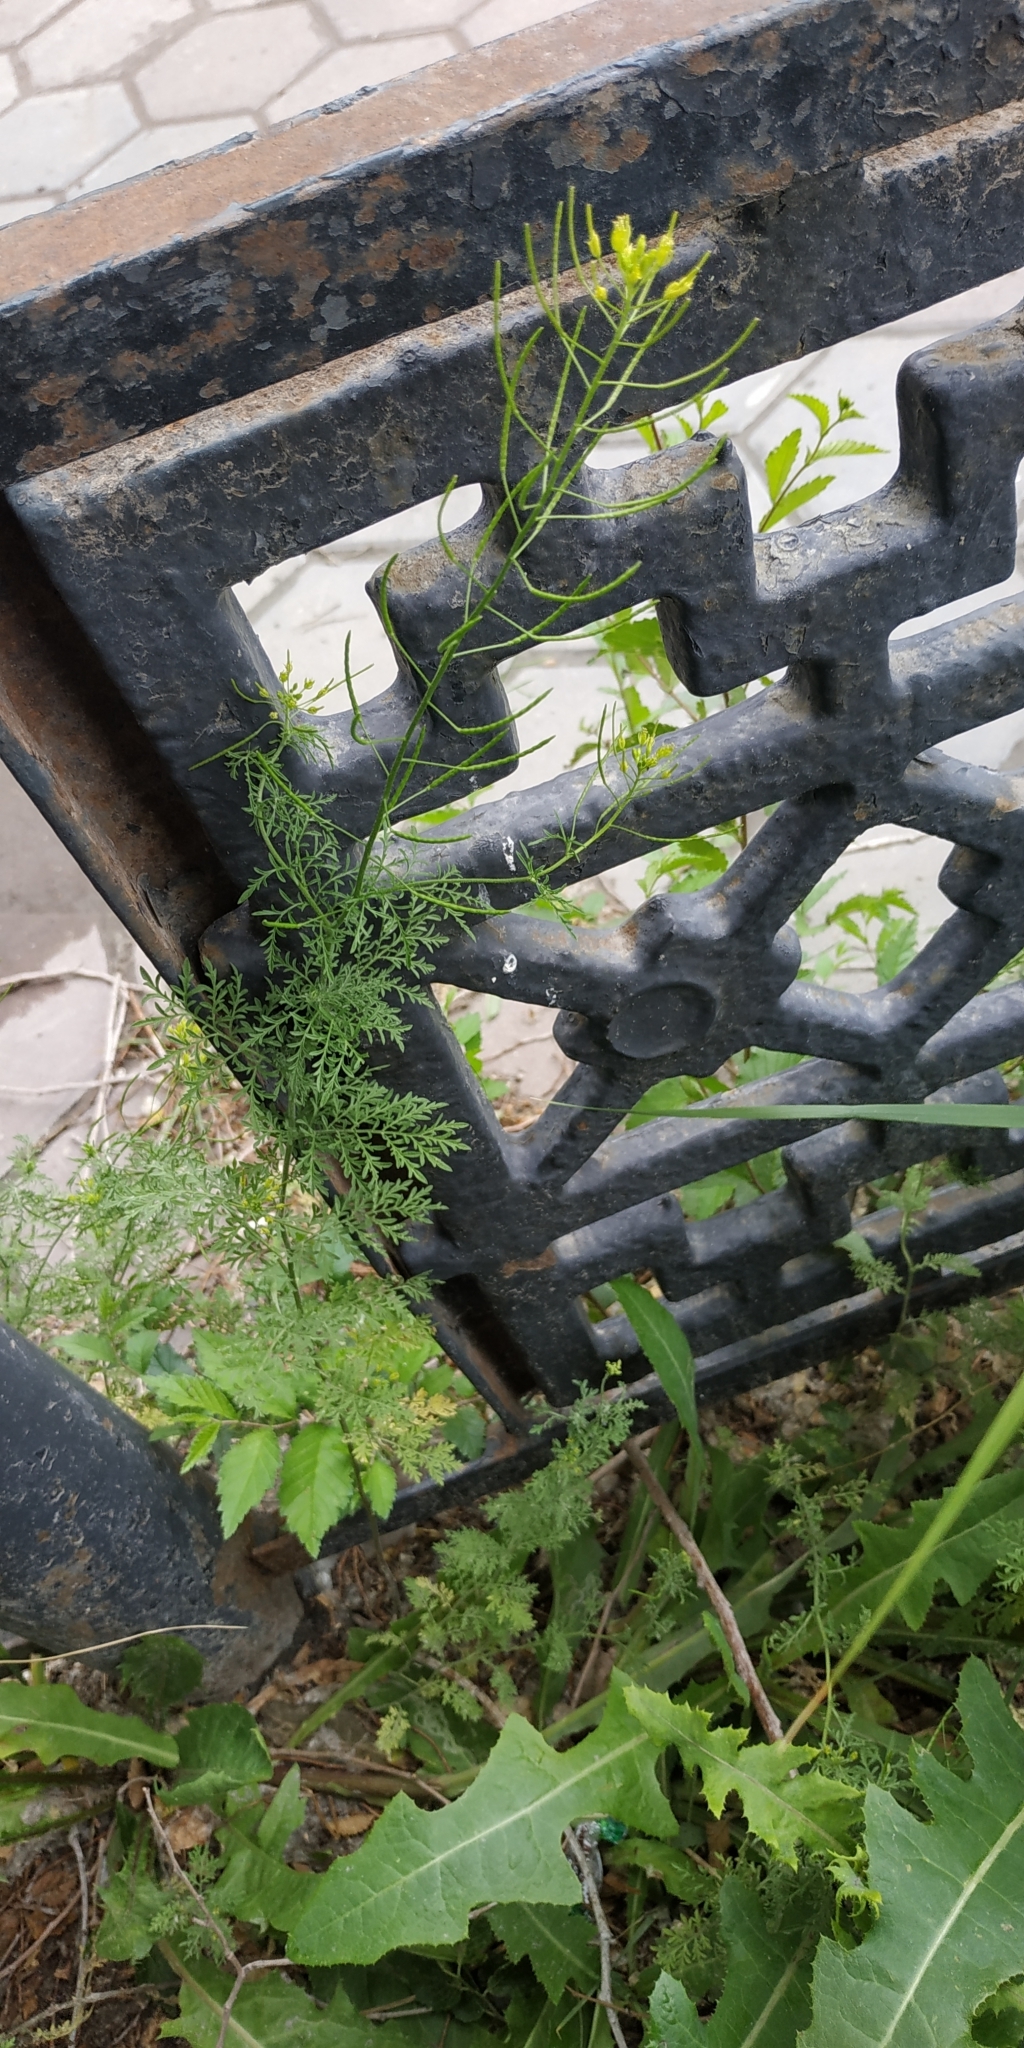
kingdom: Plantae
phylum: Tracheophyta
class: Magnoliopsida
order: Brassicales
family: Brassicaceae
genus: Descurainia
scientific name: Descurainia sophia
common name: Flixweed
